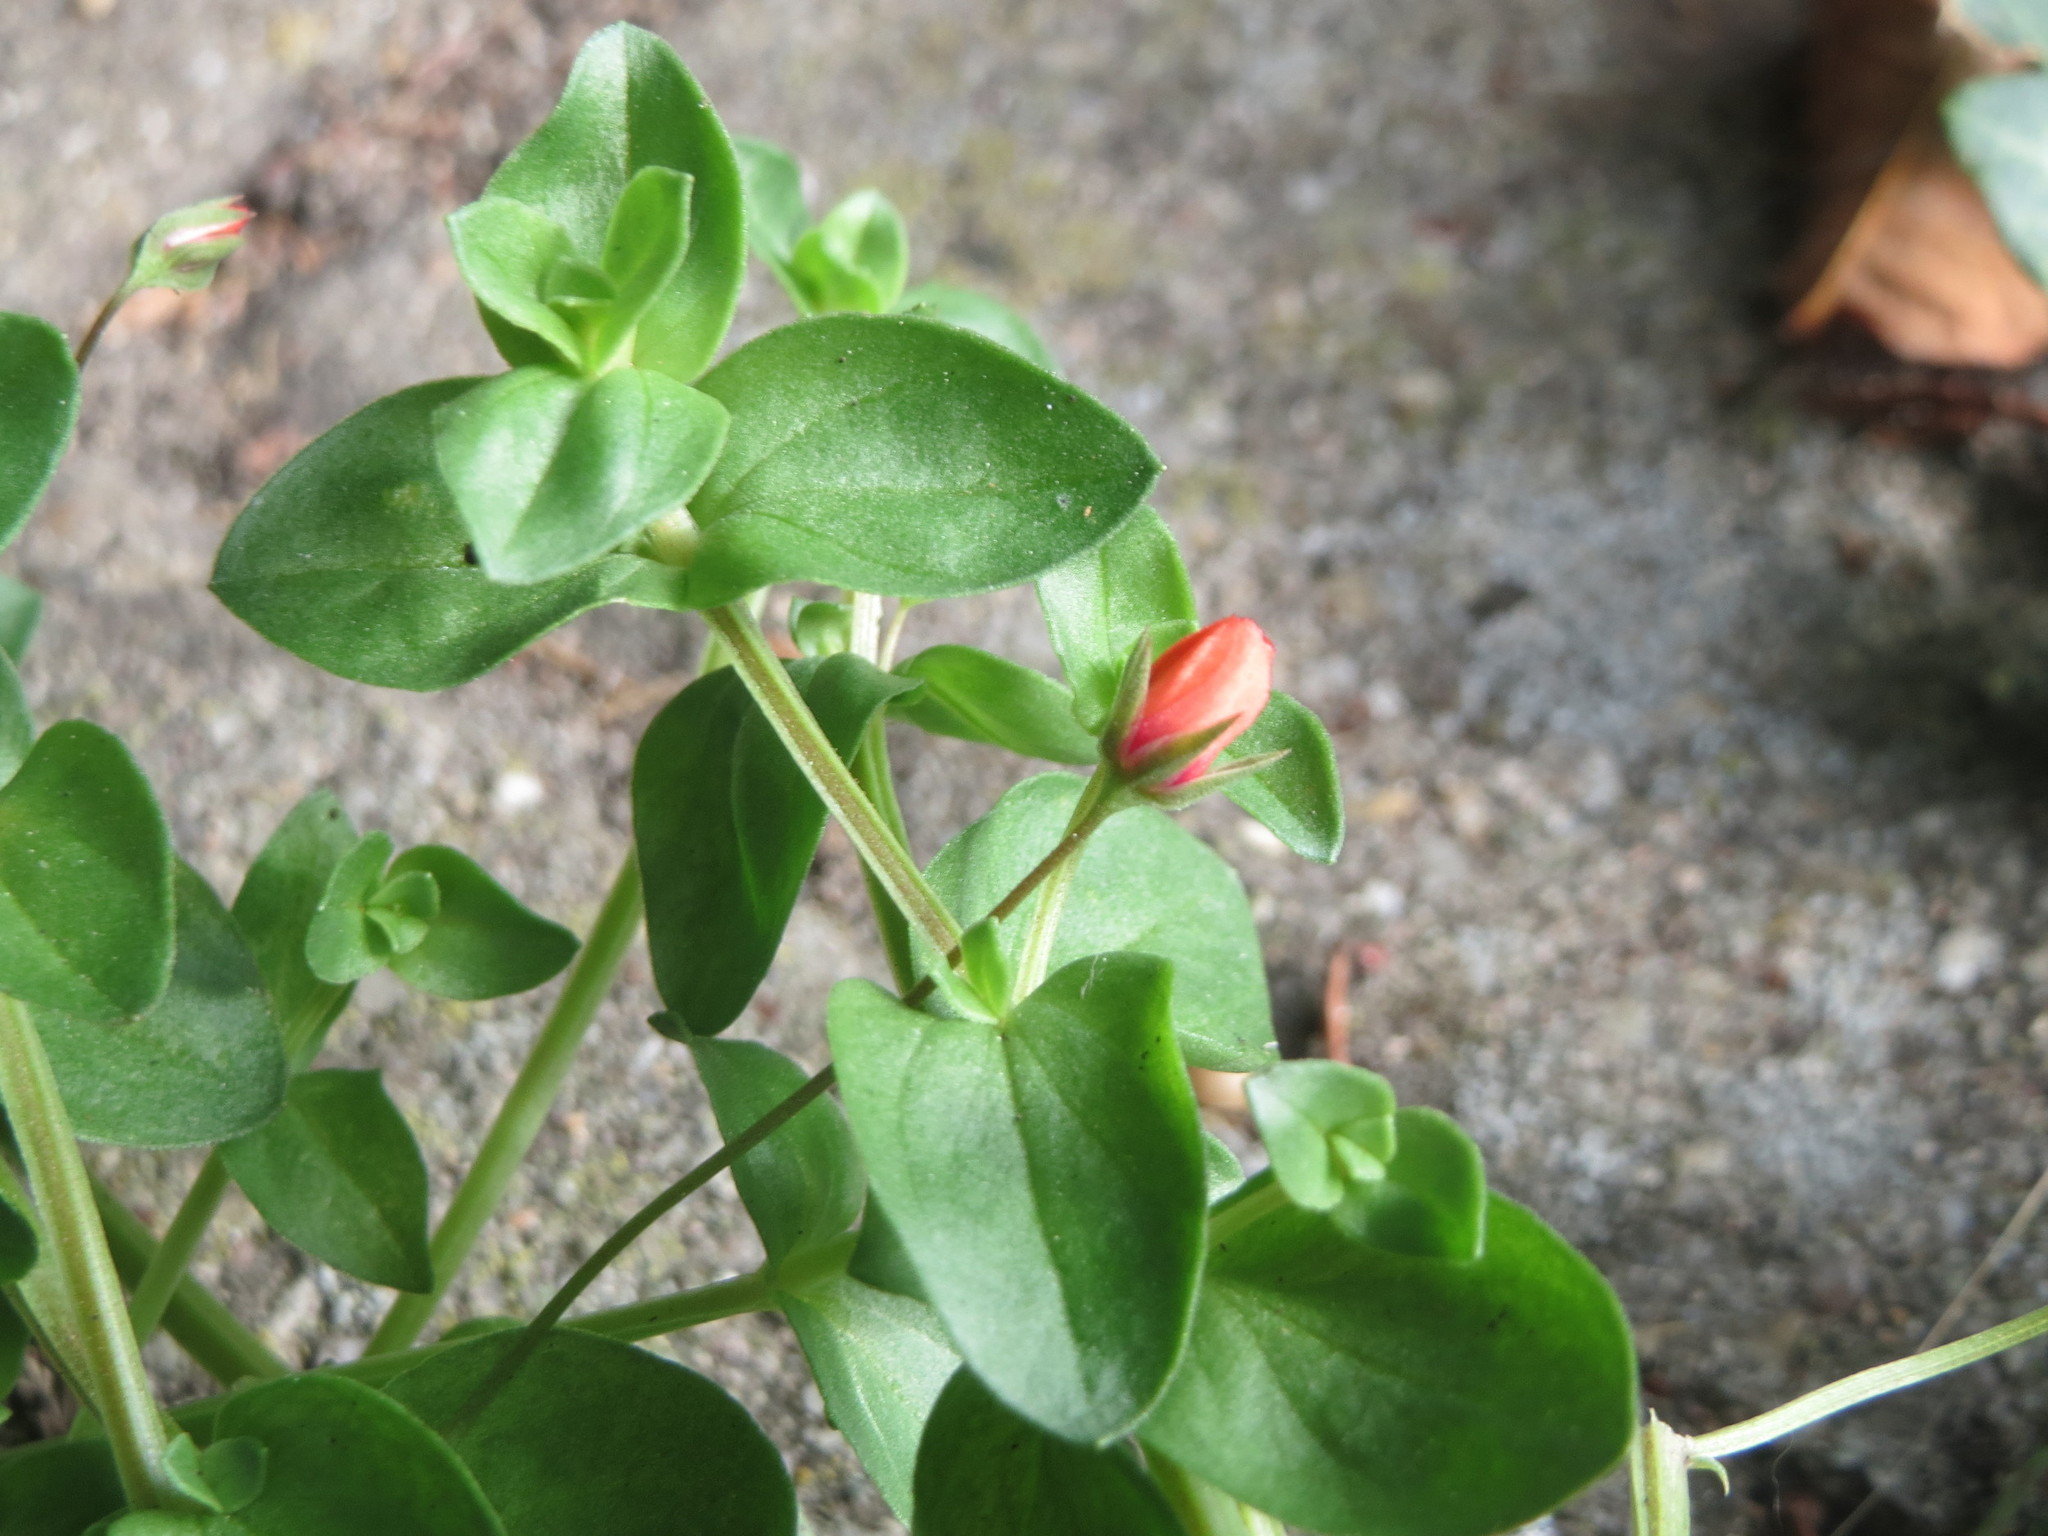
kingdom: Plantae
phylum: Tracheophyta
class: Magnoliopsida
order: Ericales
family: Primulaceae
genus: Lysimachia
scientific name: Lysimachia arvensis
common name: Scarlet pimpernel
